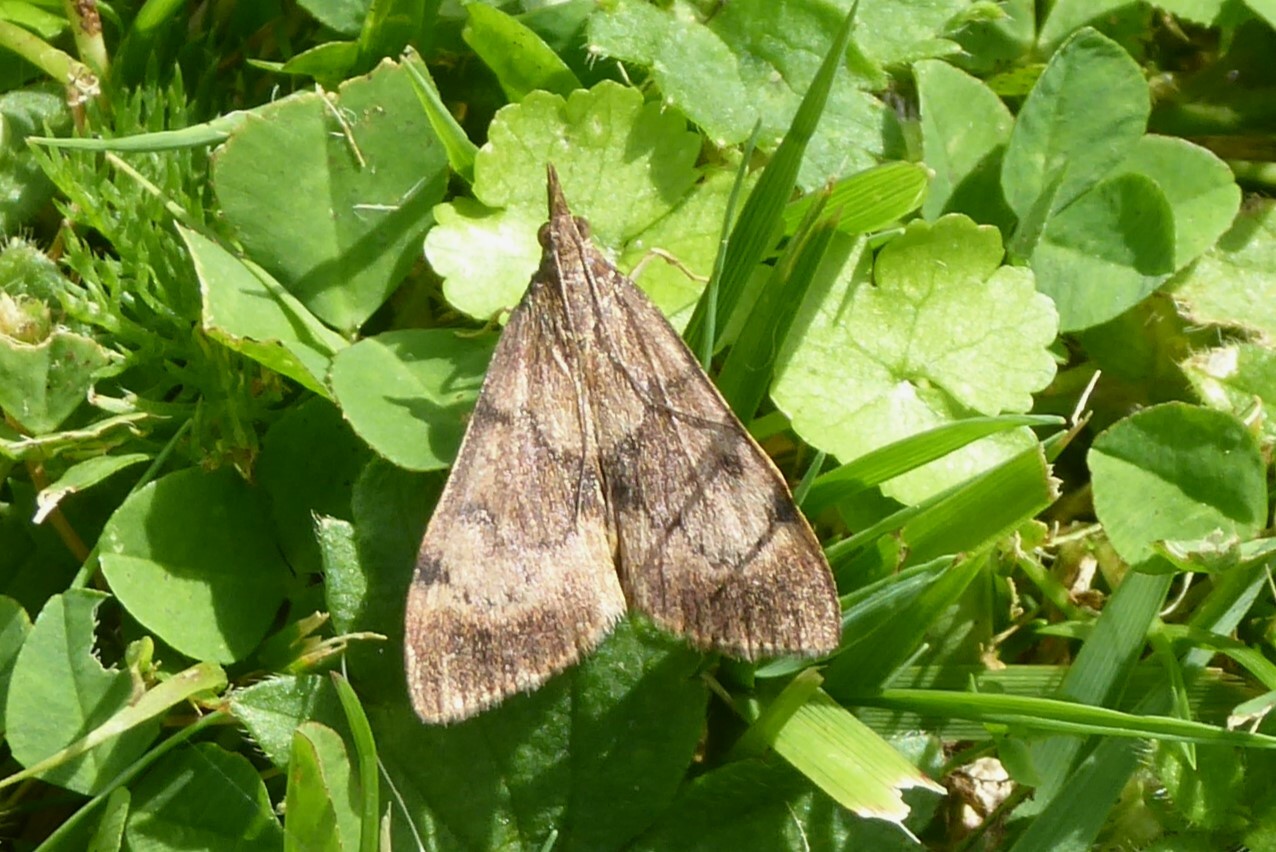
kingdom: Animalia
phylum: Arthropoda
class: Insecta
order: Lepidoptera
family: Crambidae
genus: Uresiphita
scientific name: Uresiphita
